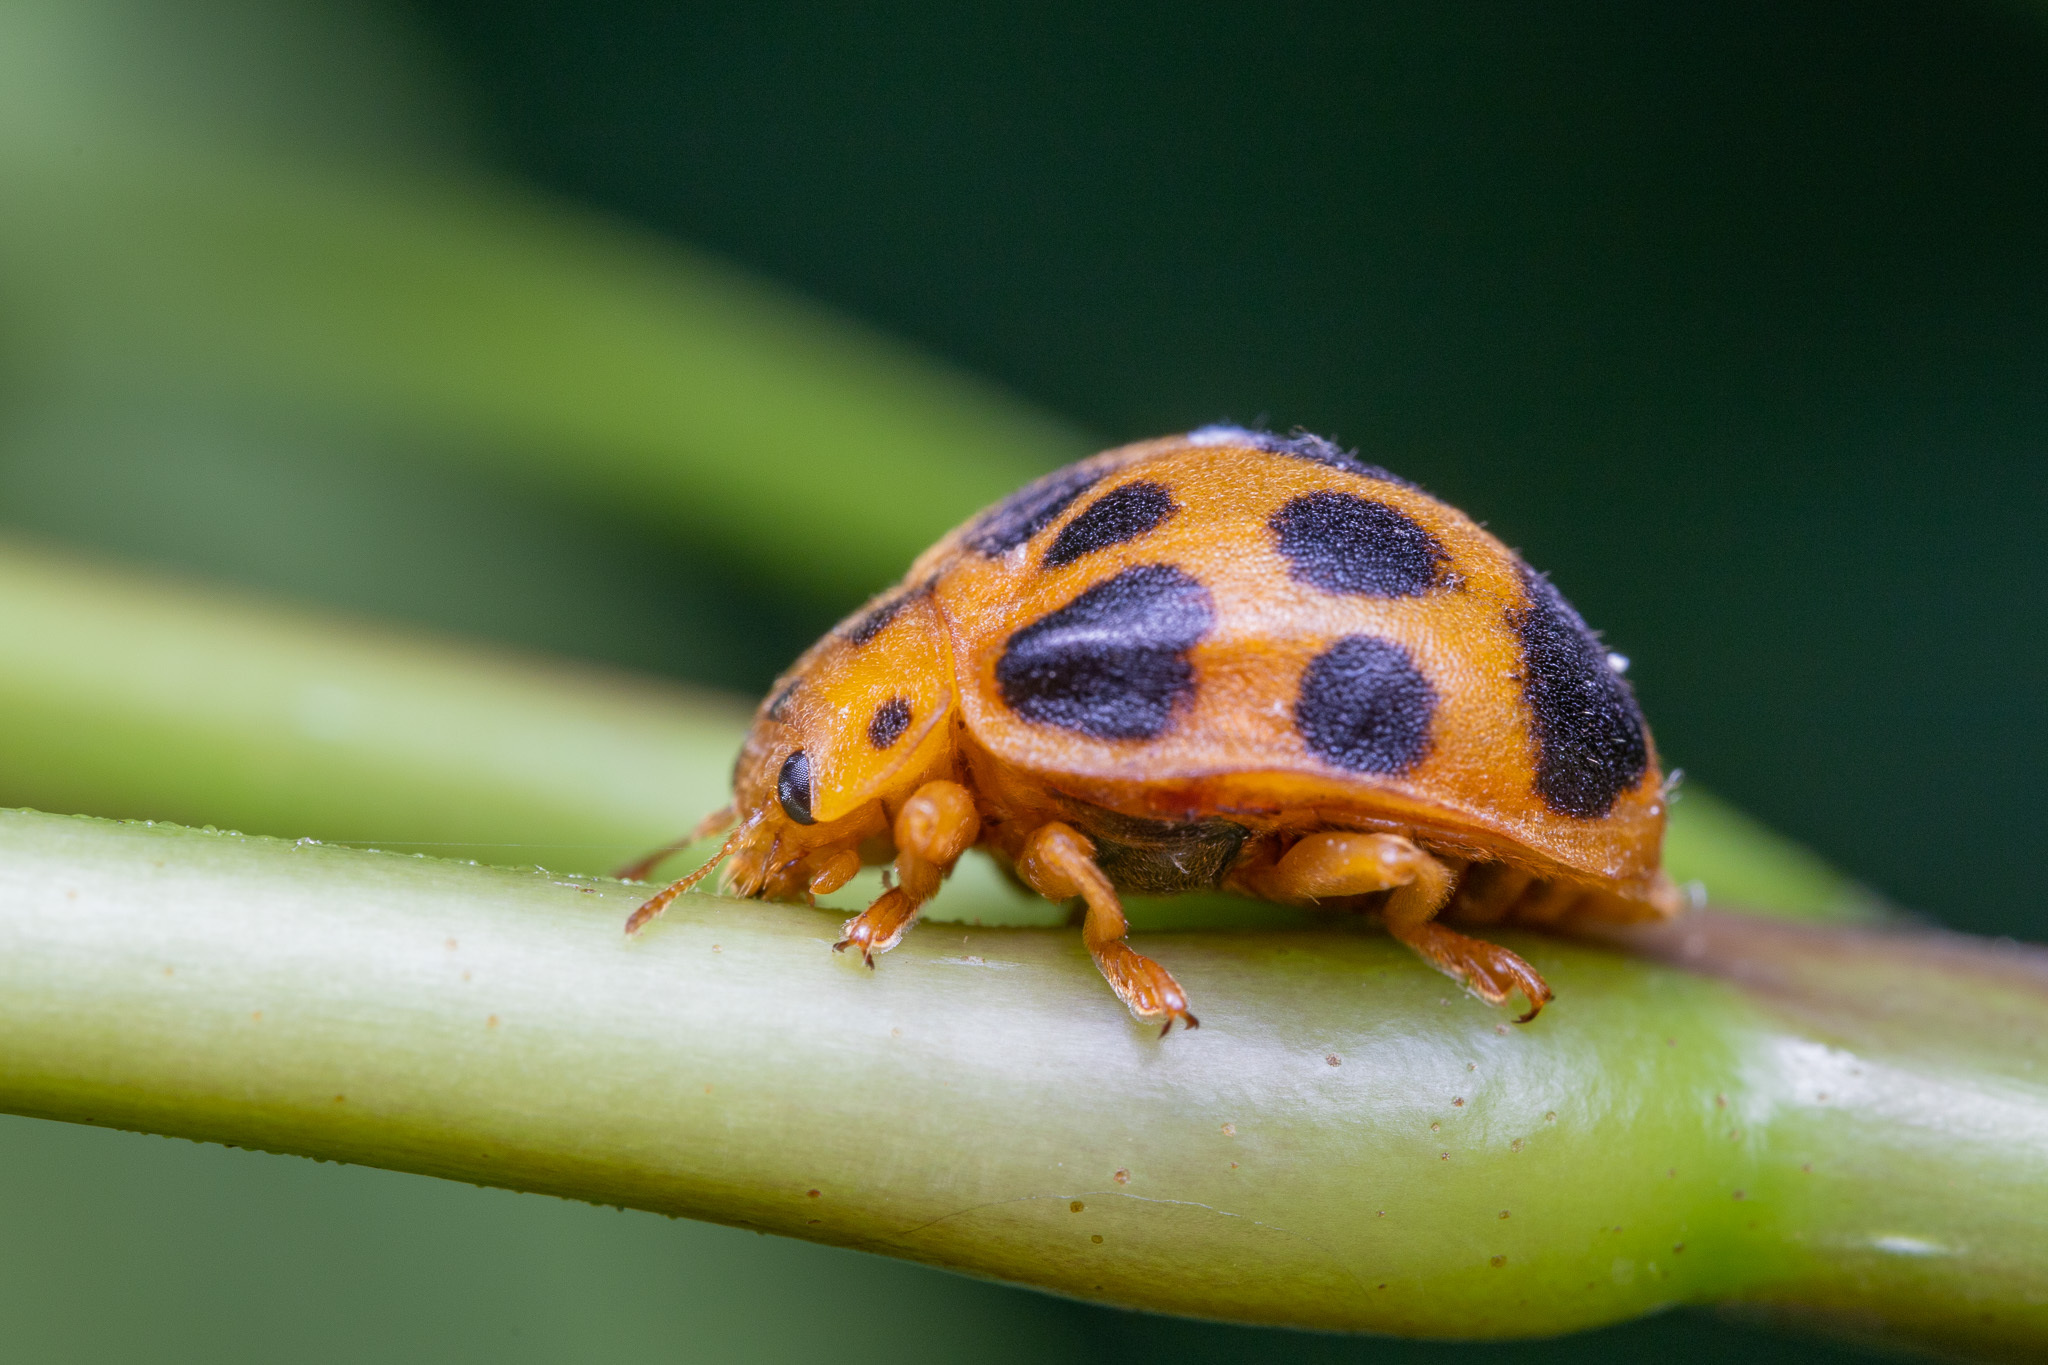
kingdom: Animalia
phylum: Arthropoda
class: Insecta
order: Coleoptera
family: Coccinellidae
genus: Epilachna
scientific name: Epilachna borealis
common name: Squash beetle
